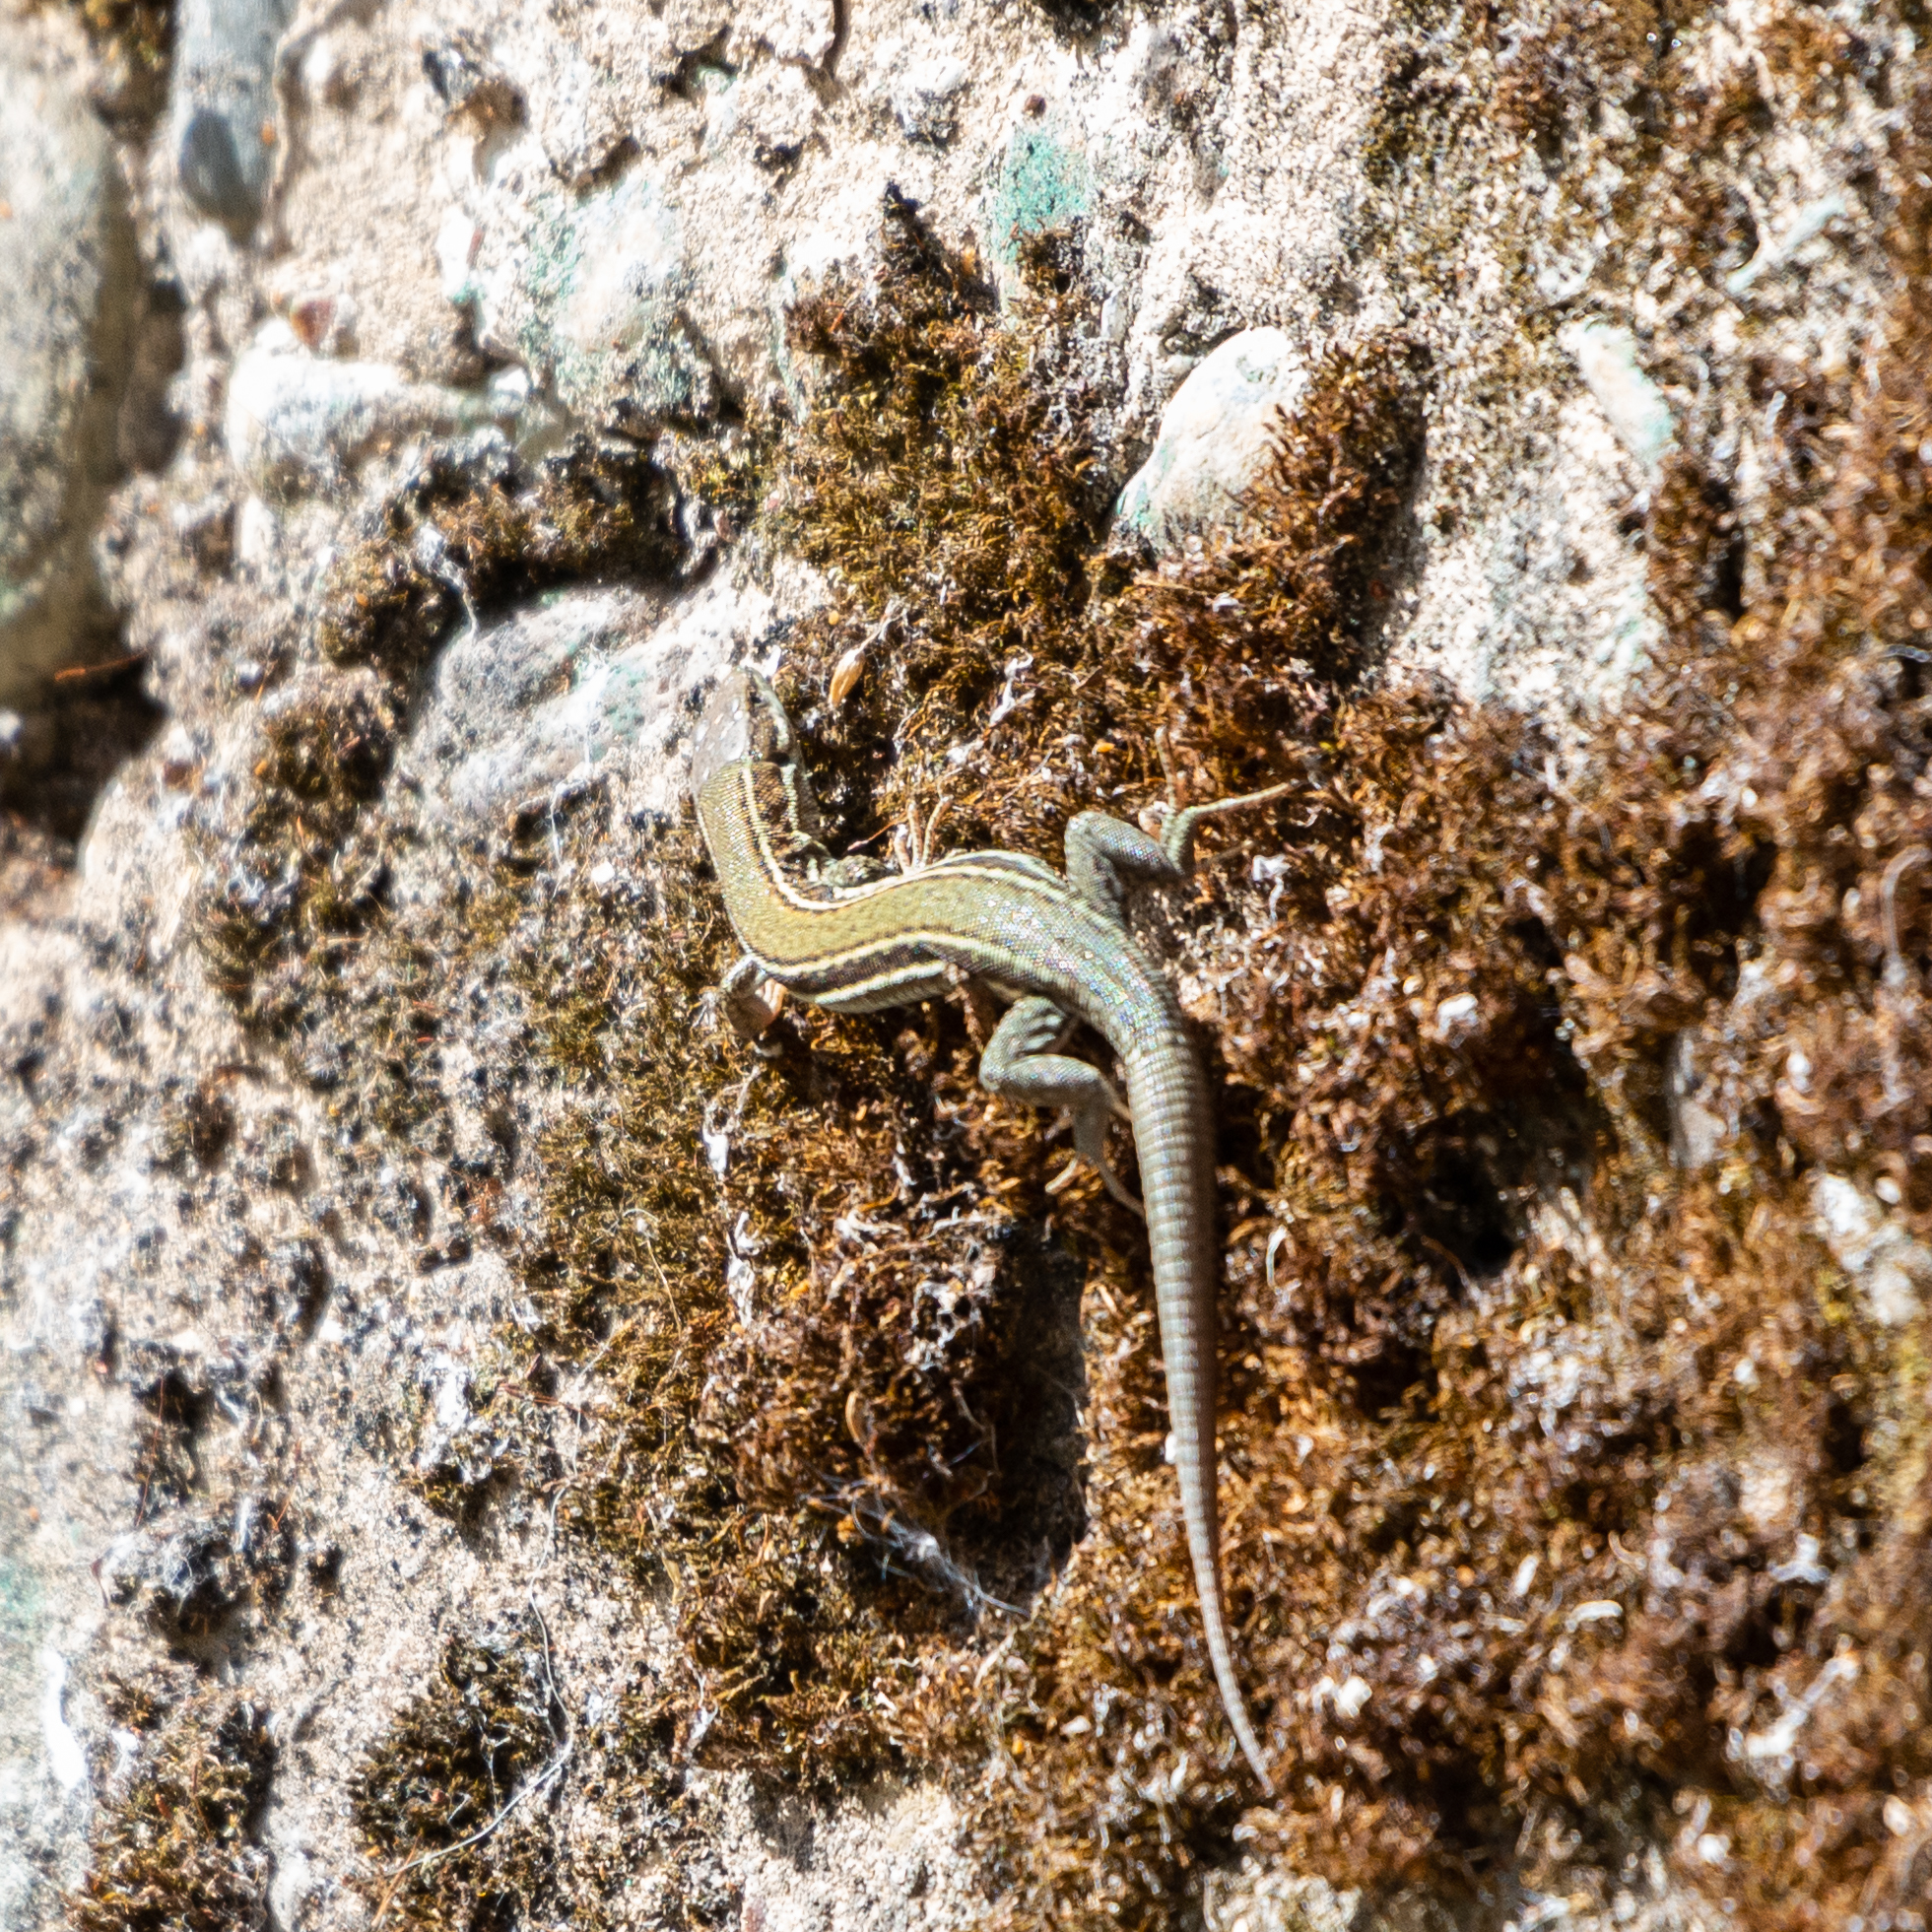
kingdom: Animalia
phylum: Chordata
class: Squamata
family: Lacertidae
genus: Podarcis
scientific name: Podarcis liolepis
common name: Catalonian wall lizard
